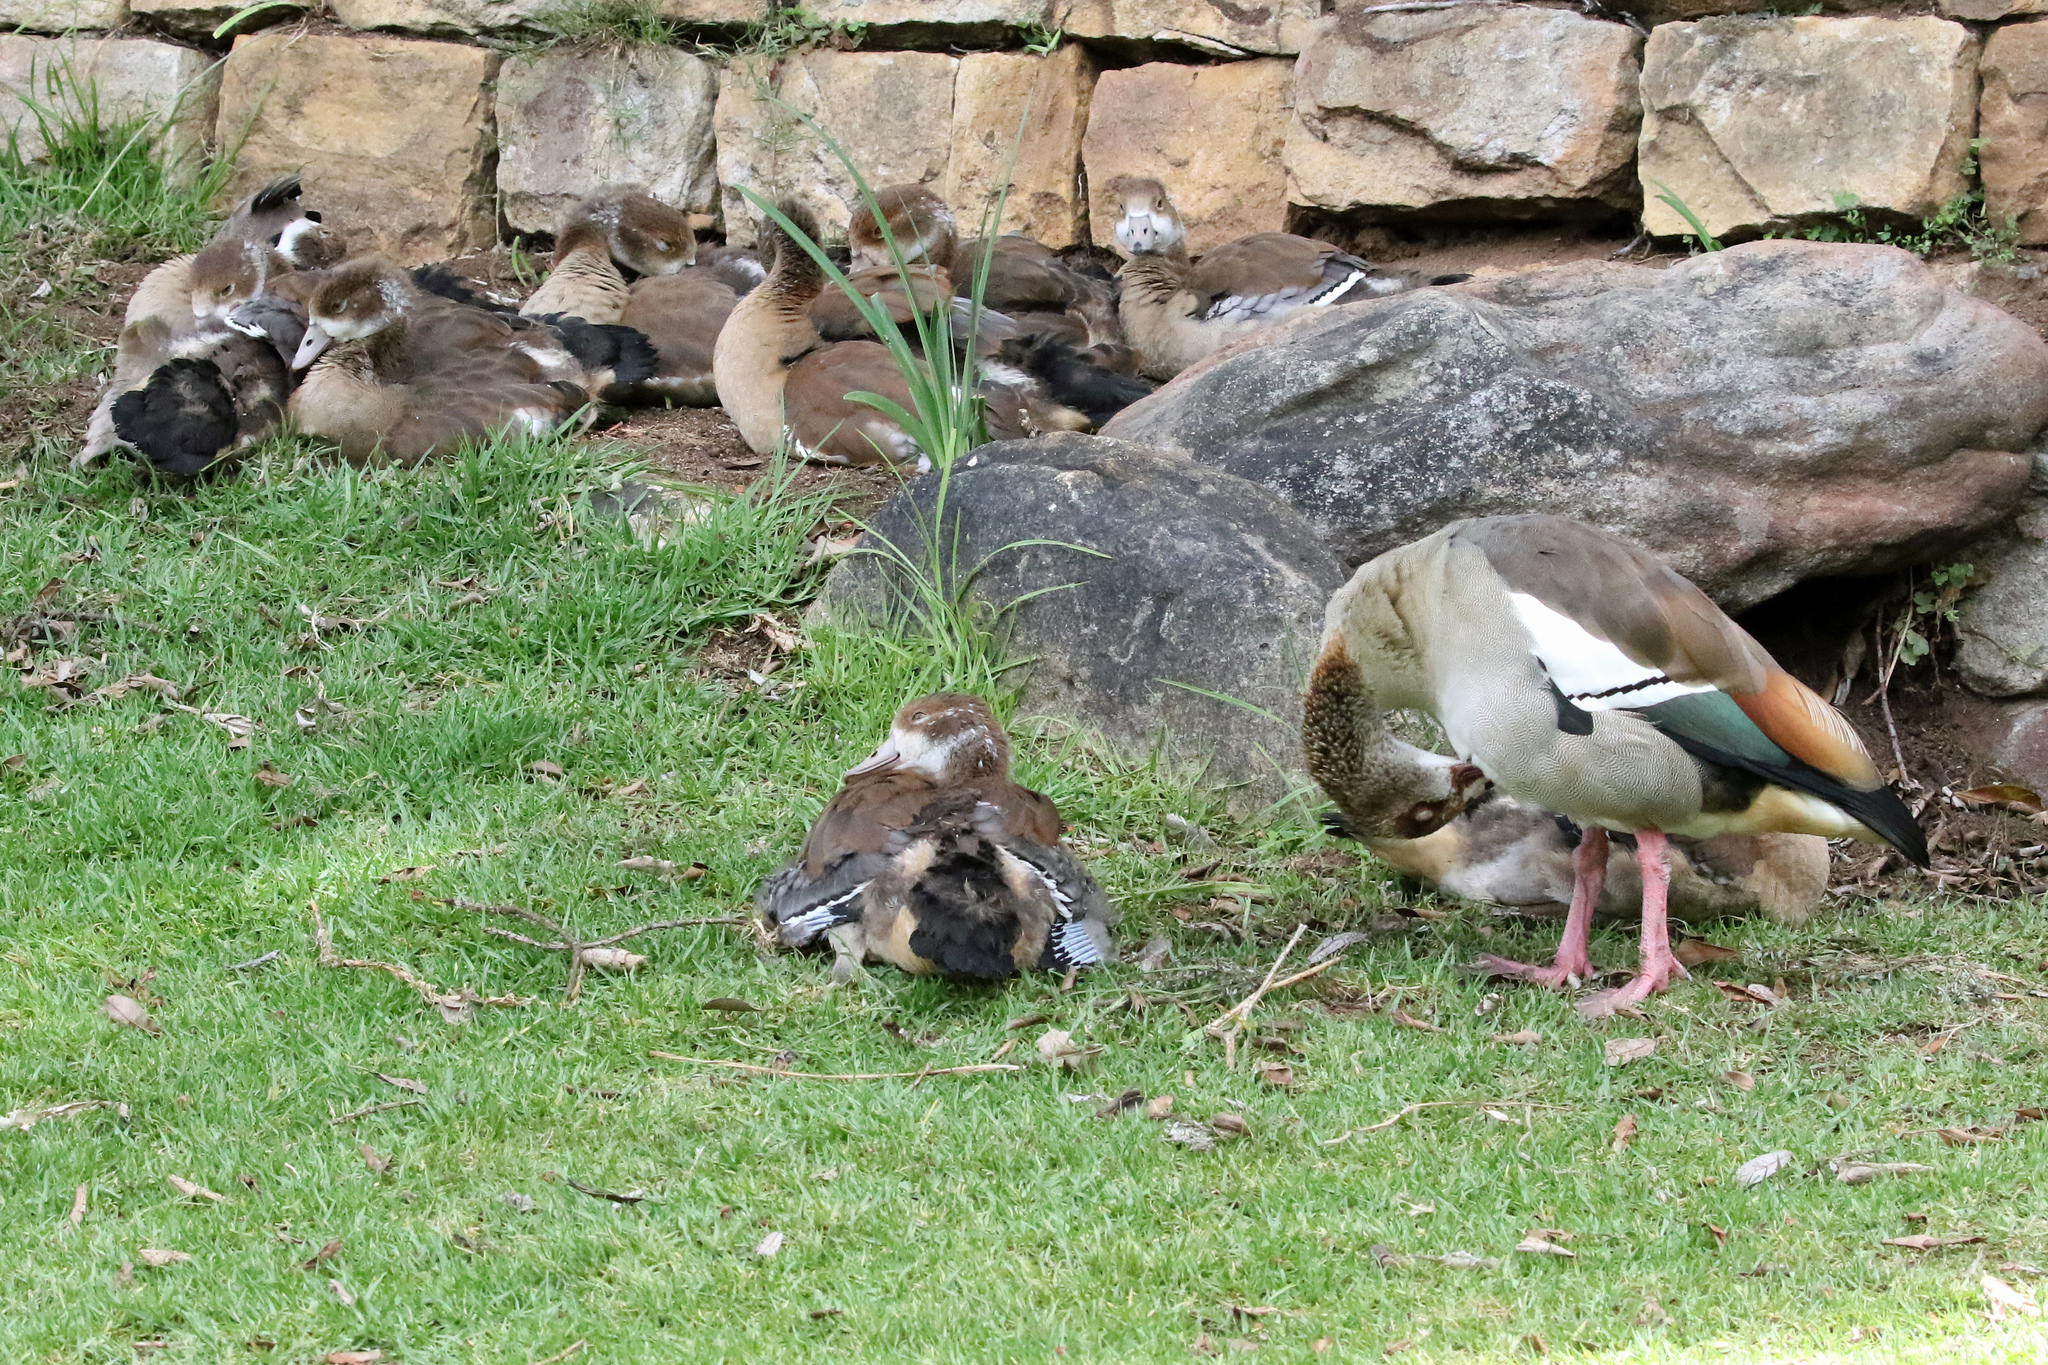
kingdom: Animalia
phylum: Chordata
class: Aves
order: Anseriformes
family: Anatidae
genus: Alopochen
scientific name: Alopochen aegyptiaca
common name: Egyptian goose
